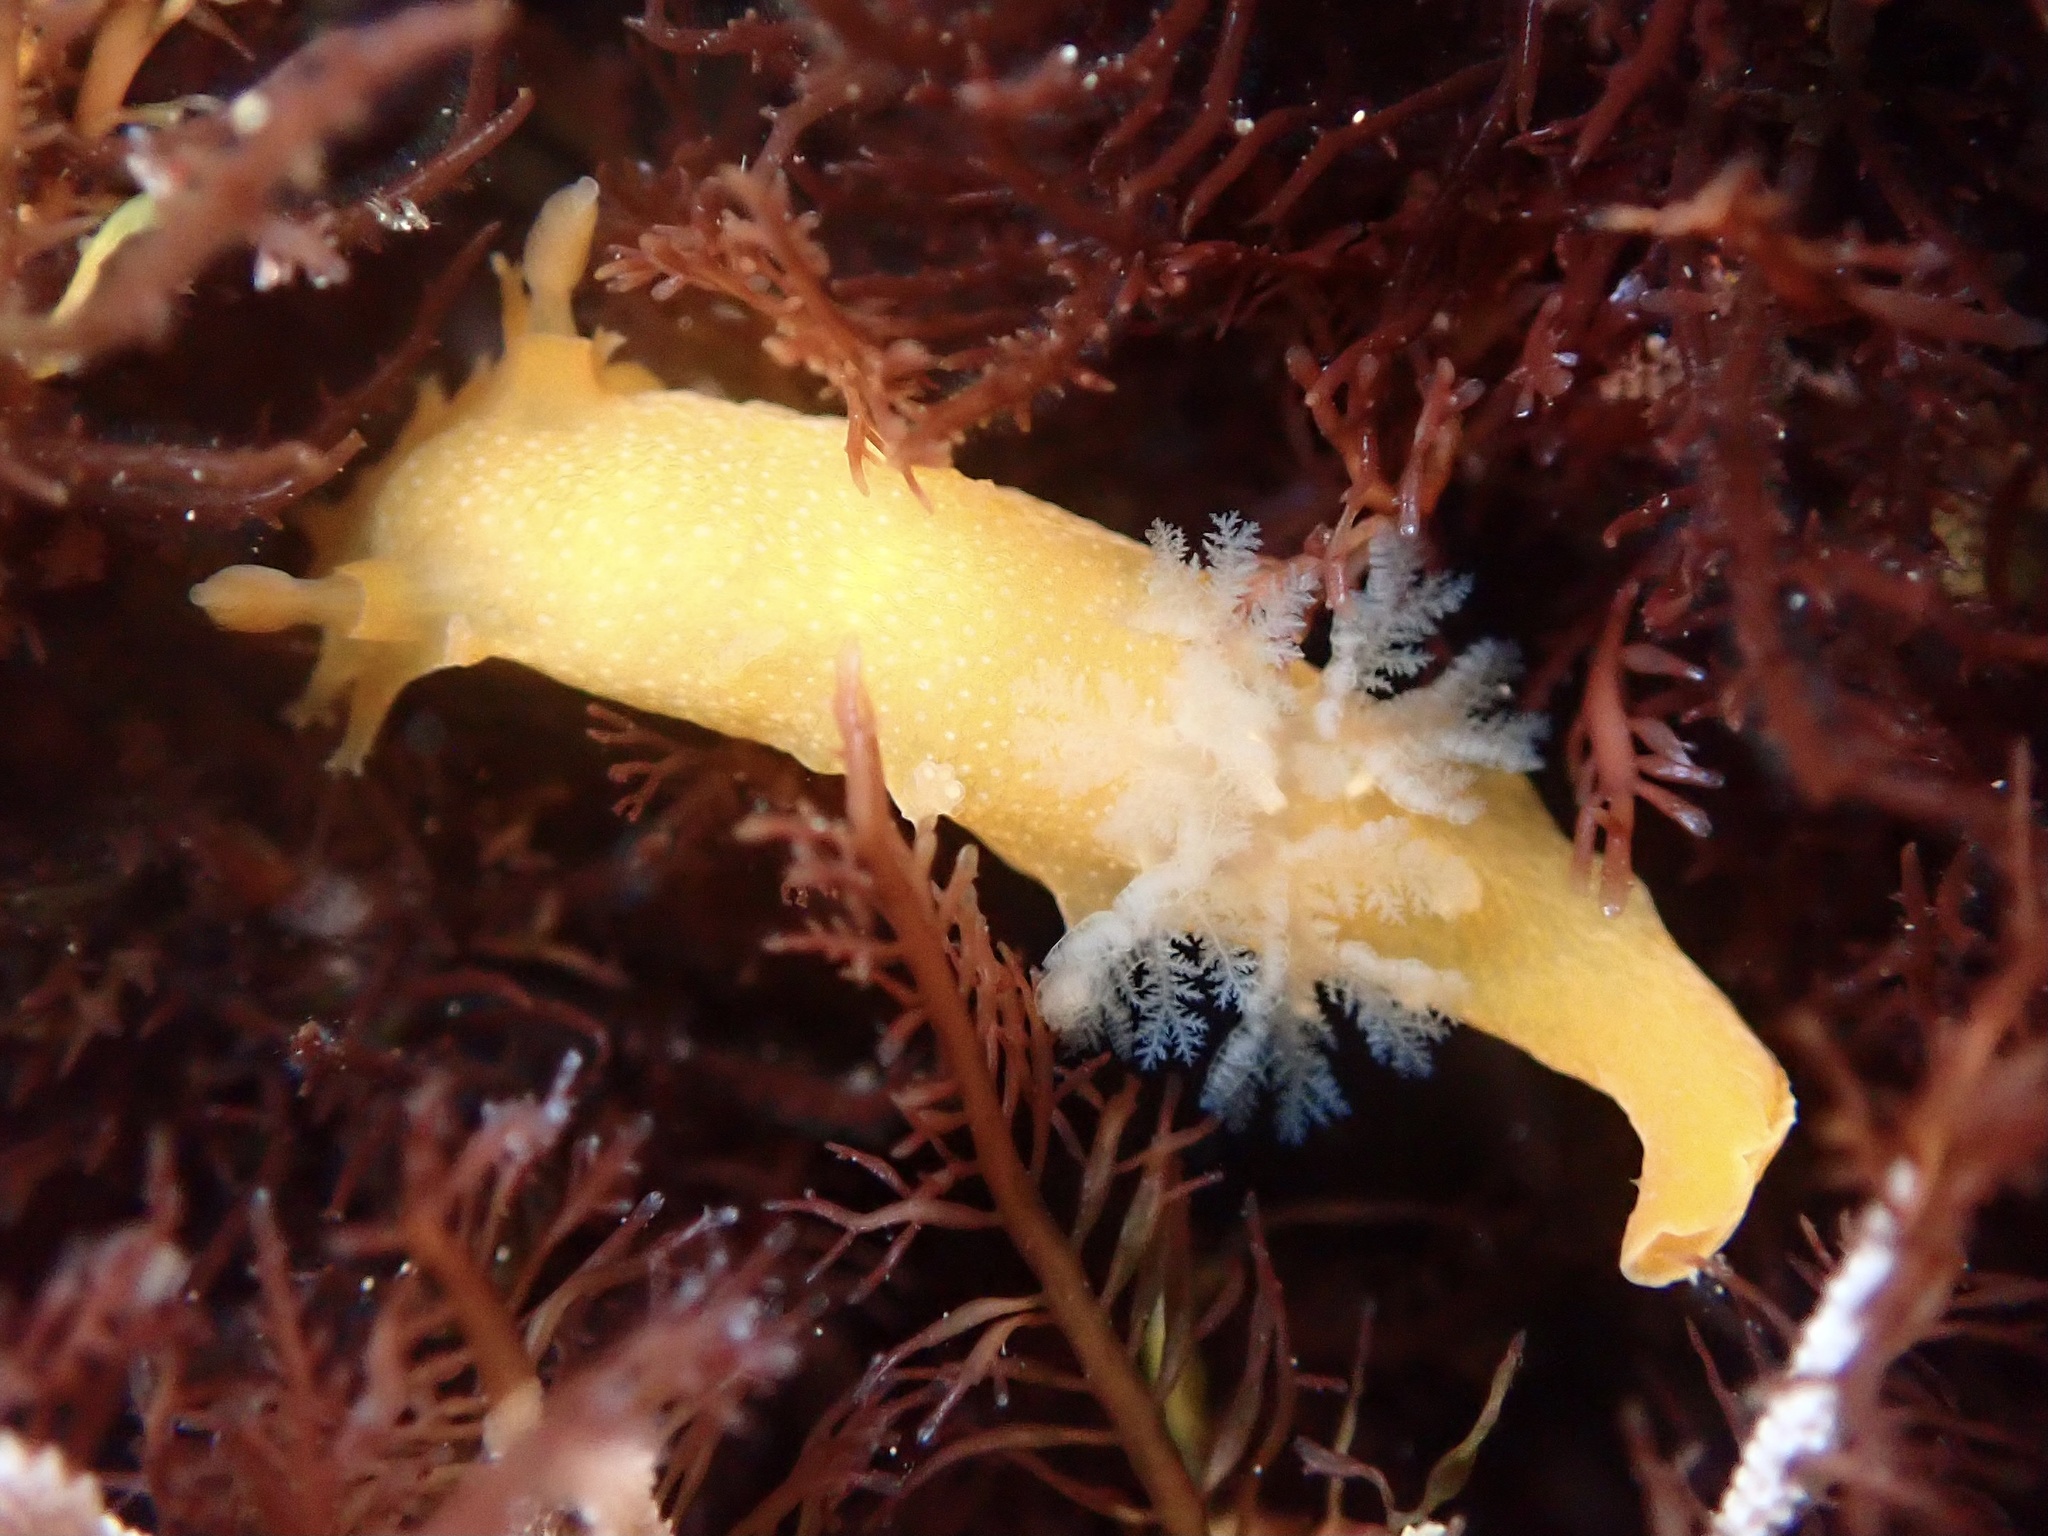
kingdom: Animalia
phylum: Mollusca
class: Gastropoda
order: Nudibranchia
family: Polyceridae
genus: Triopha
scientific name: Triopha maculata
